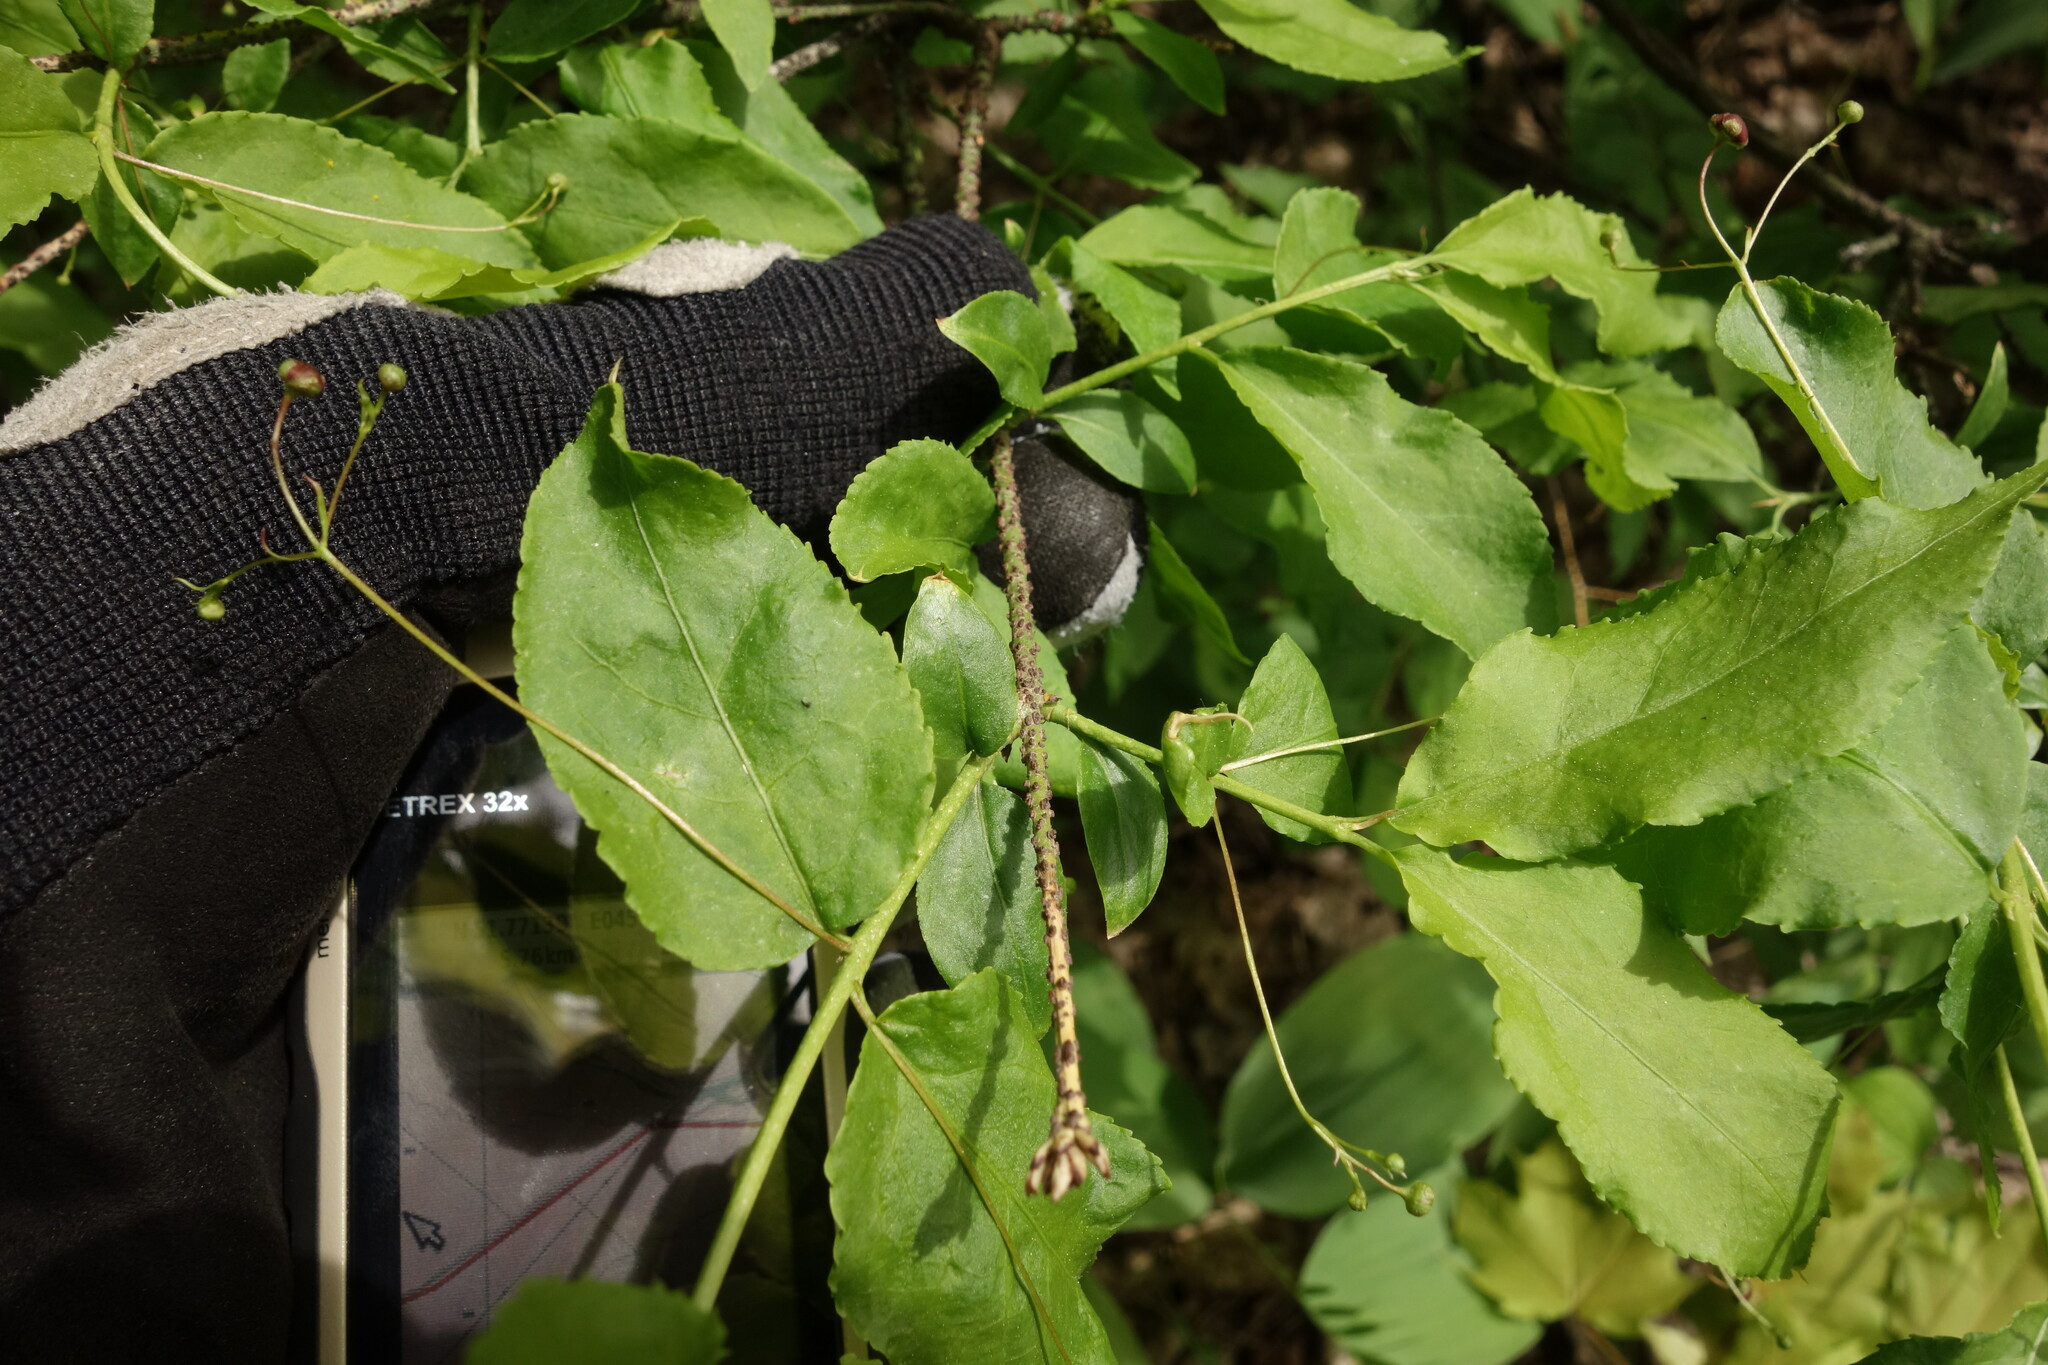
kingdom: Plantae
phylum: Tracheophyta
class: Magnoliopsida
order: Celastrales
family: Celastraceae
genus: Euonymus
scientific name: Euonymus verrucosus
